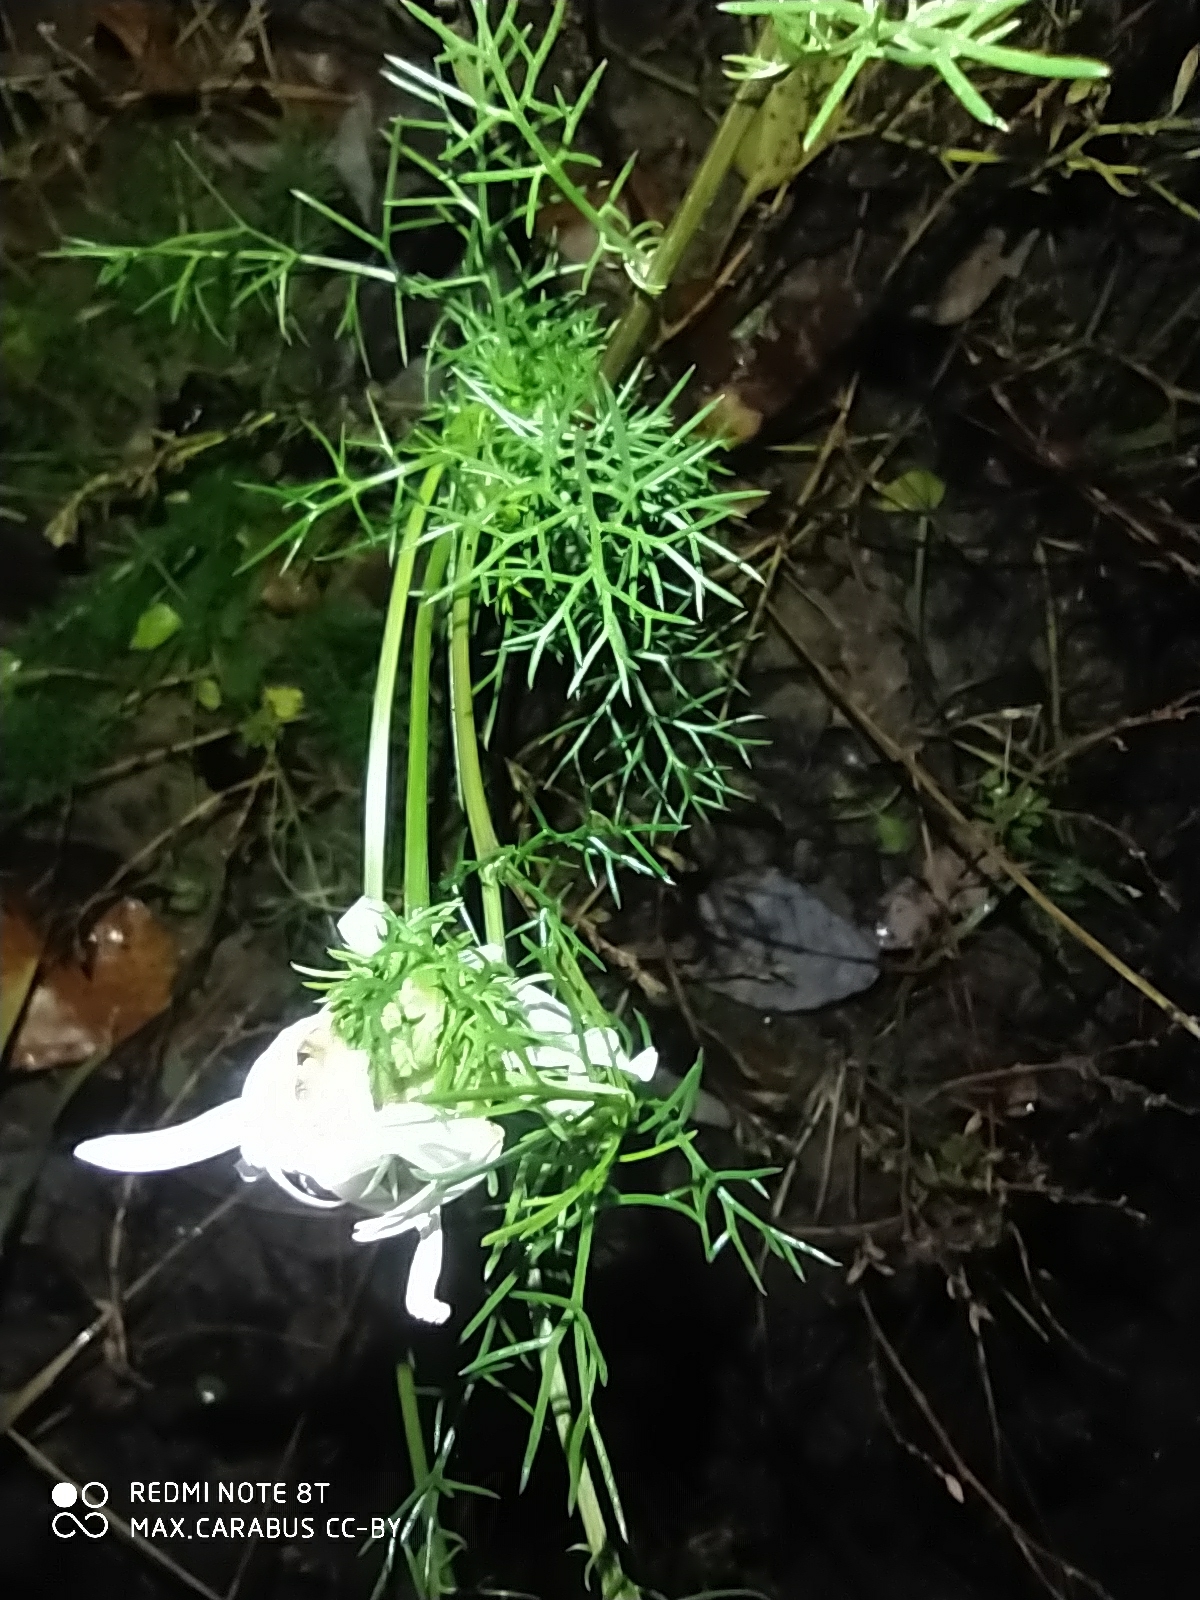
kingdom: Plantae
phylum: Tracheophyta
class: Magnoliopsida
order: Asterales
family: Asteraceae
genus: Tripleurospermum
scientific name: Tripleurospermum inodorum
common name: Scentless mayweed
